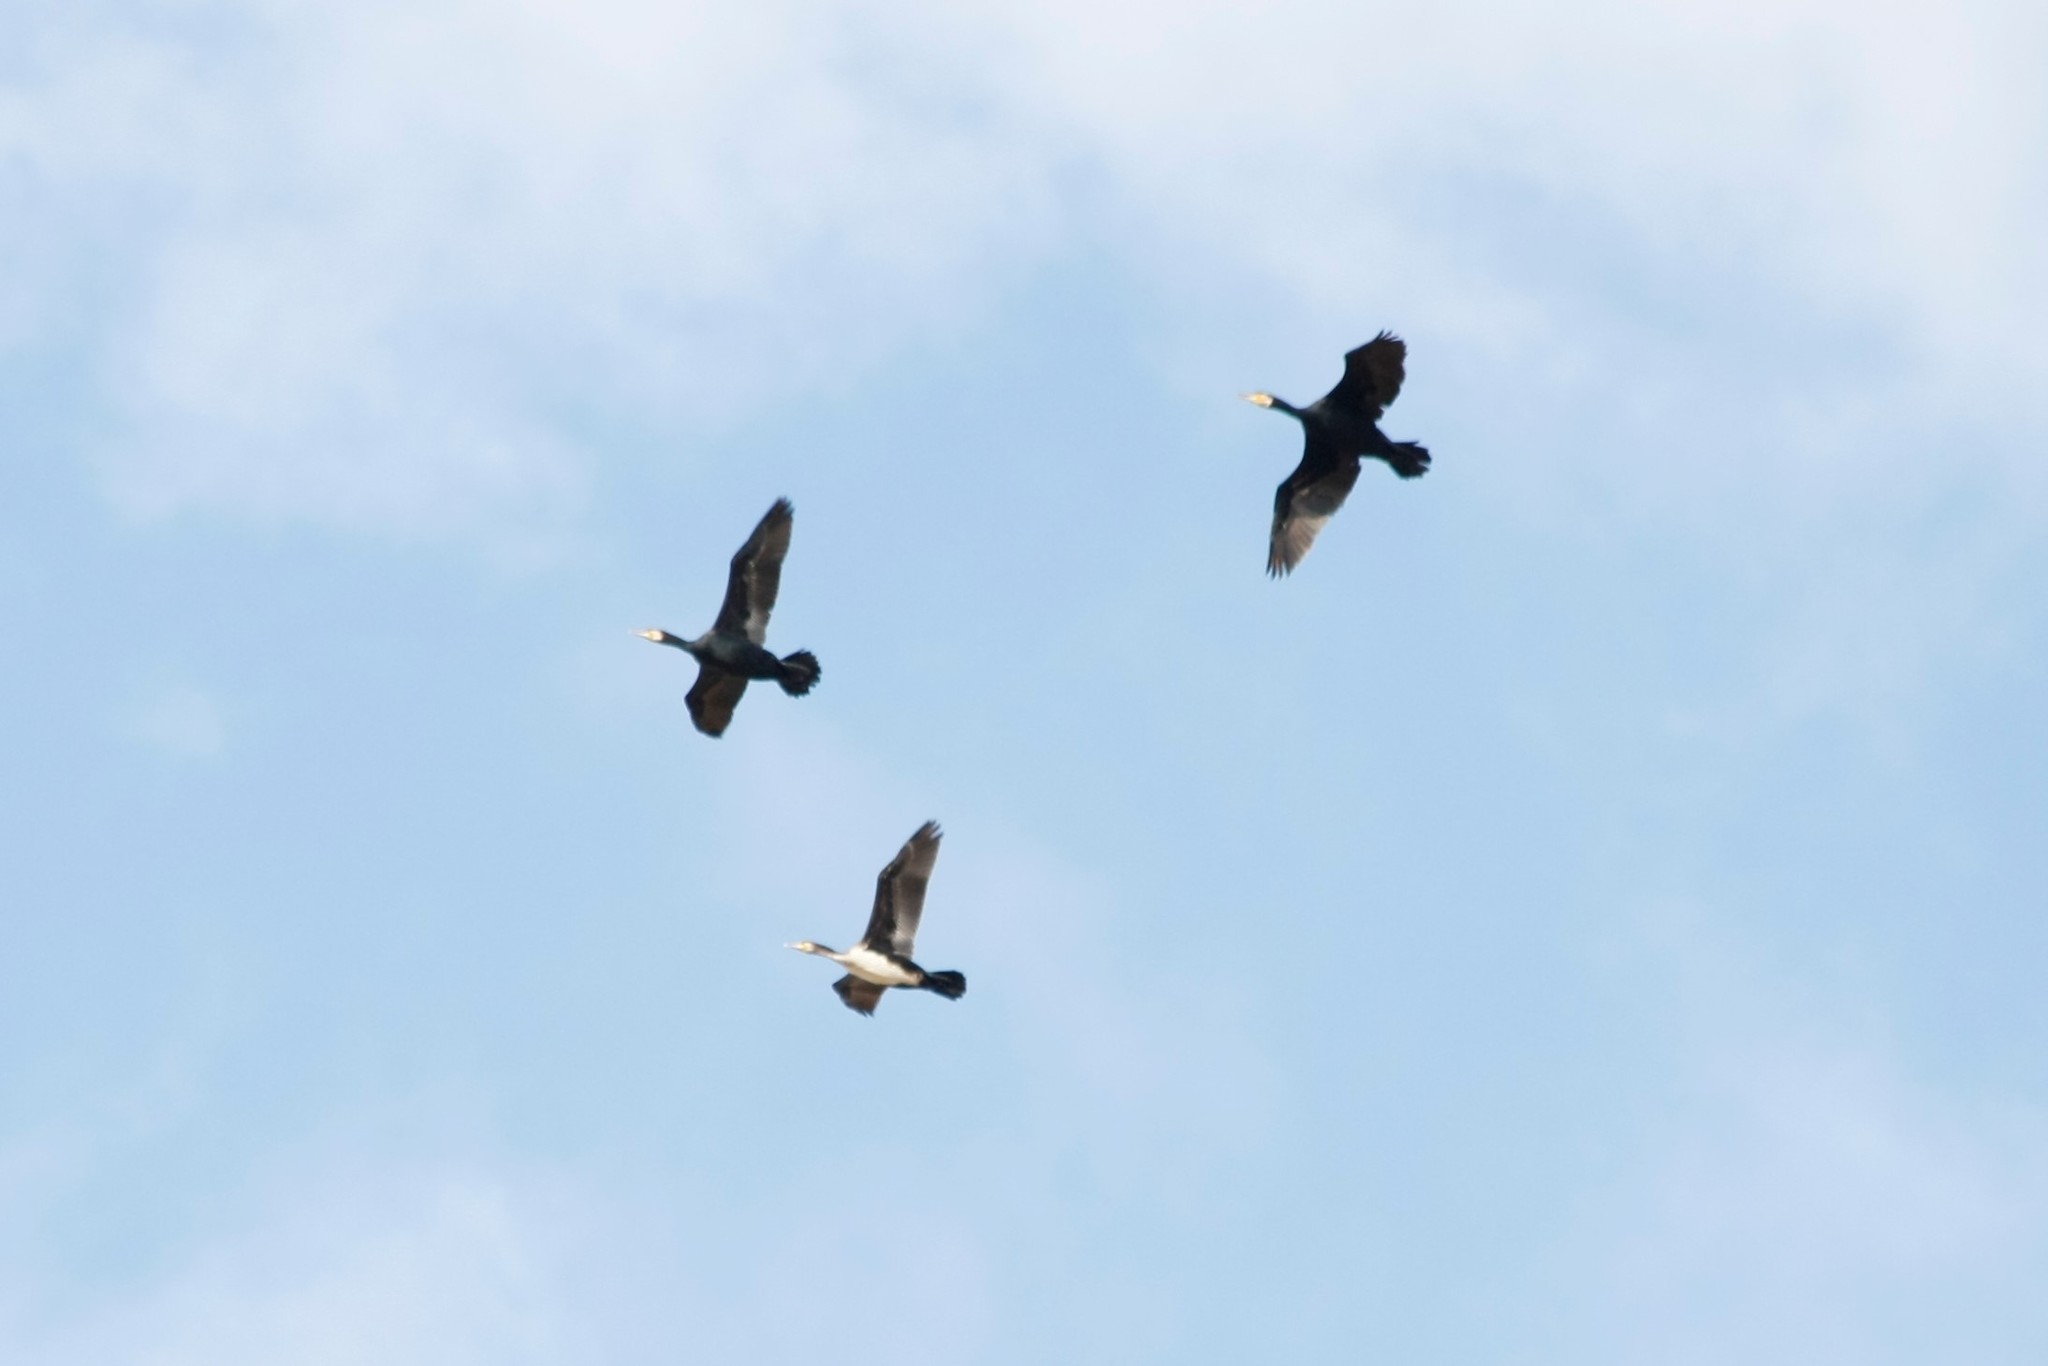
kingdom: Animalia
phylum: Chordata
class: Aves
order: Suliformes
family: Phalacrocoracidae
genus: Phalacrocorax
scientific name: Phalacrocorax carbo
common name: Great cormorant
